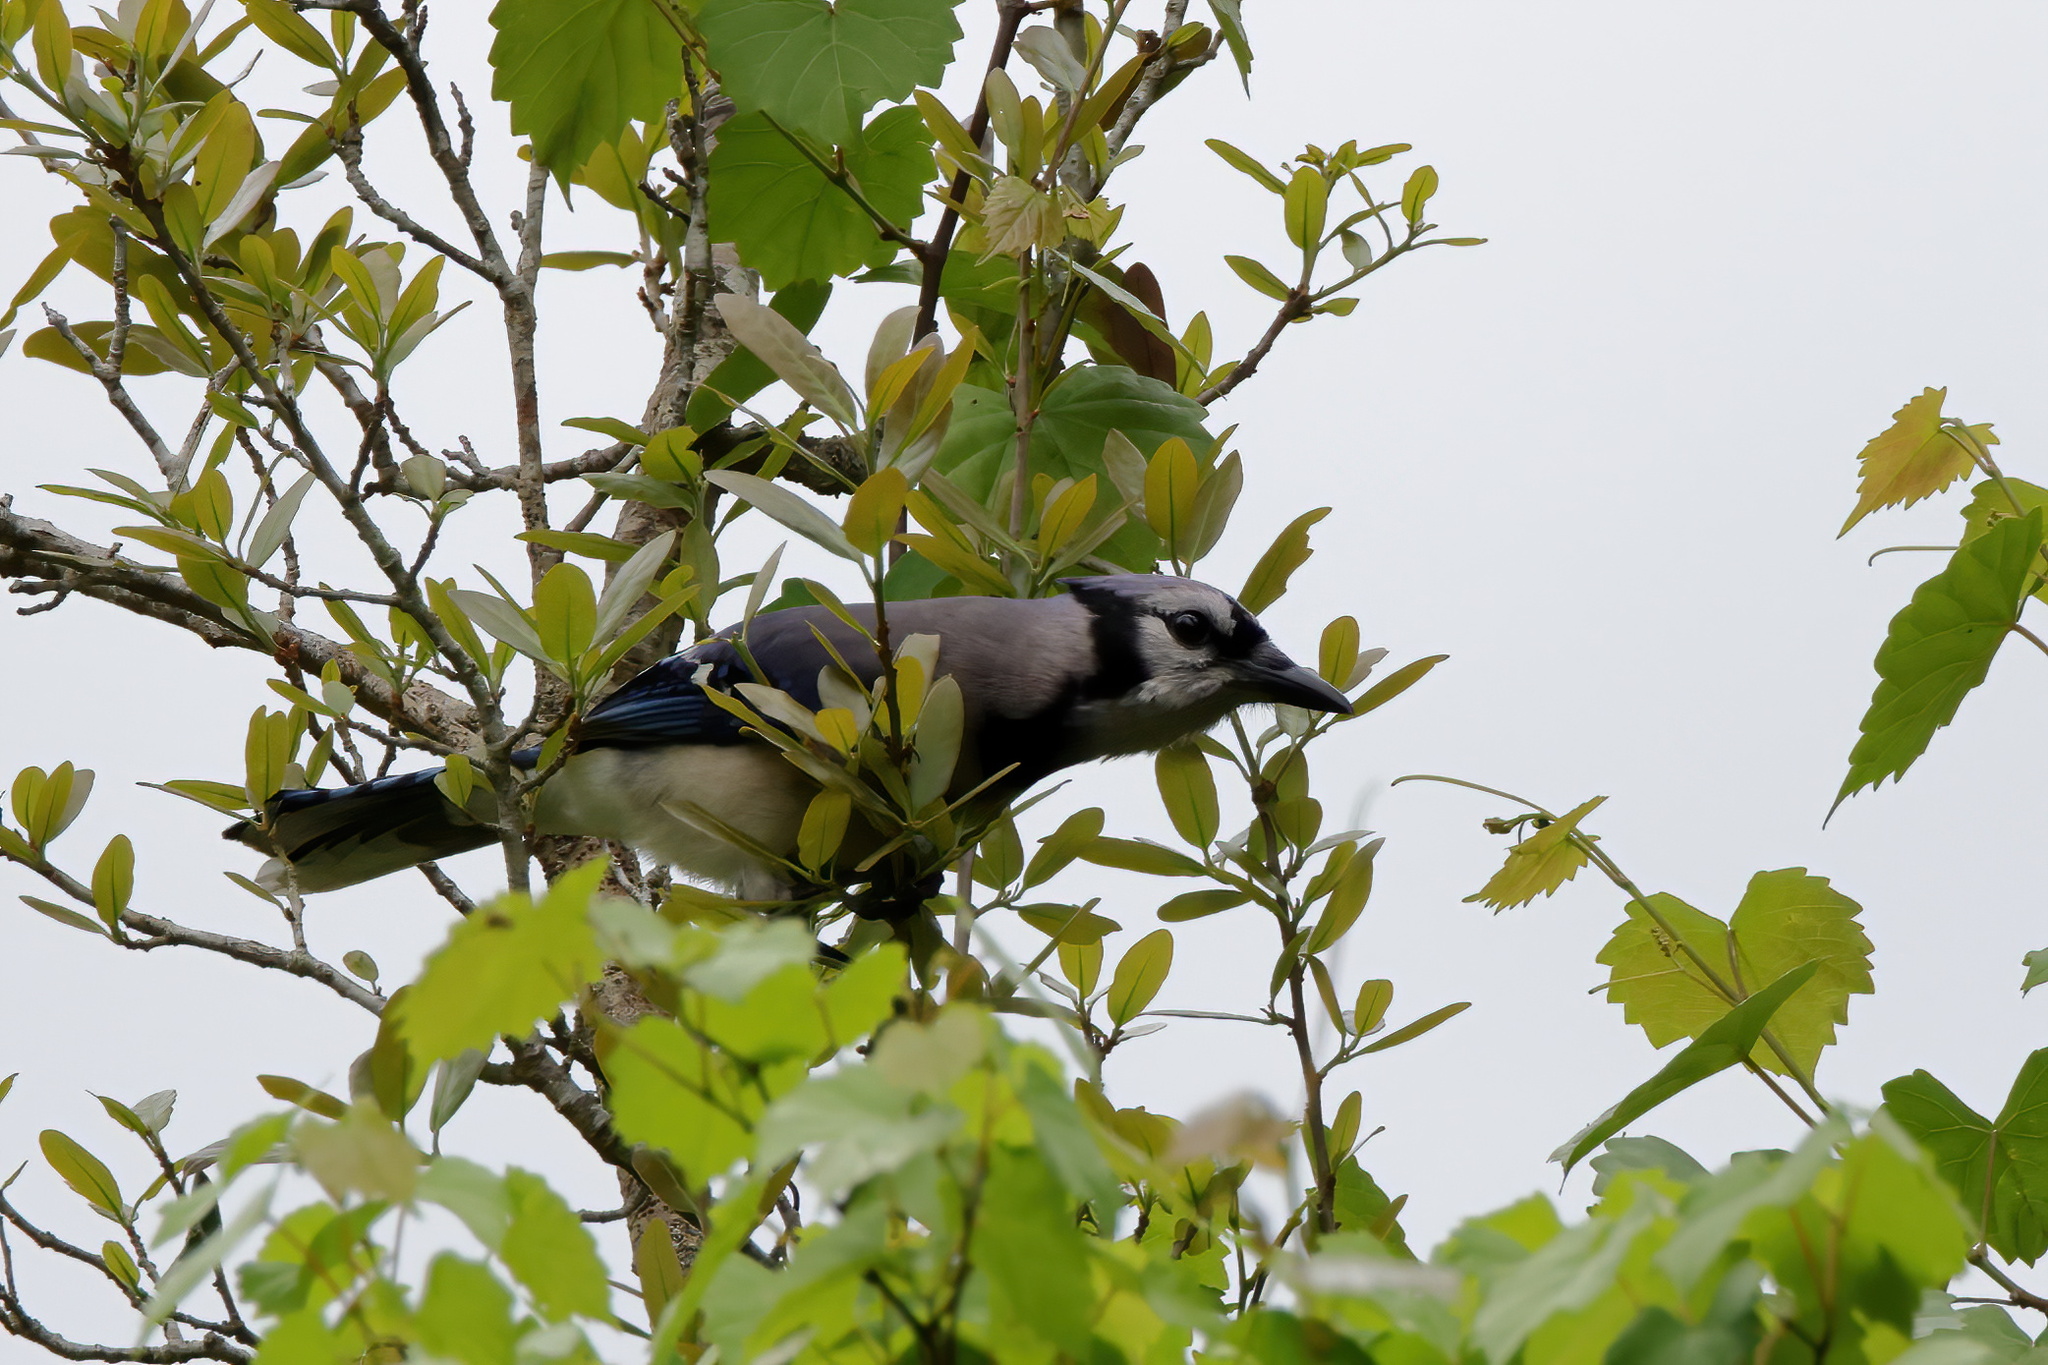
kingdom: Animalia
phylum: Chordata
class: Aves
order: Passeriformes
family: Corvidae
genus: Cyanocitta
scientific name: Cyanocitta cristata
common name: Blue jay
